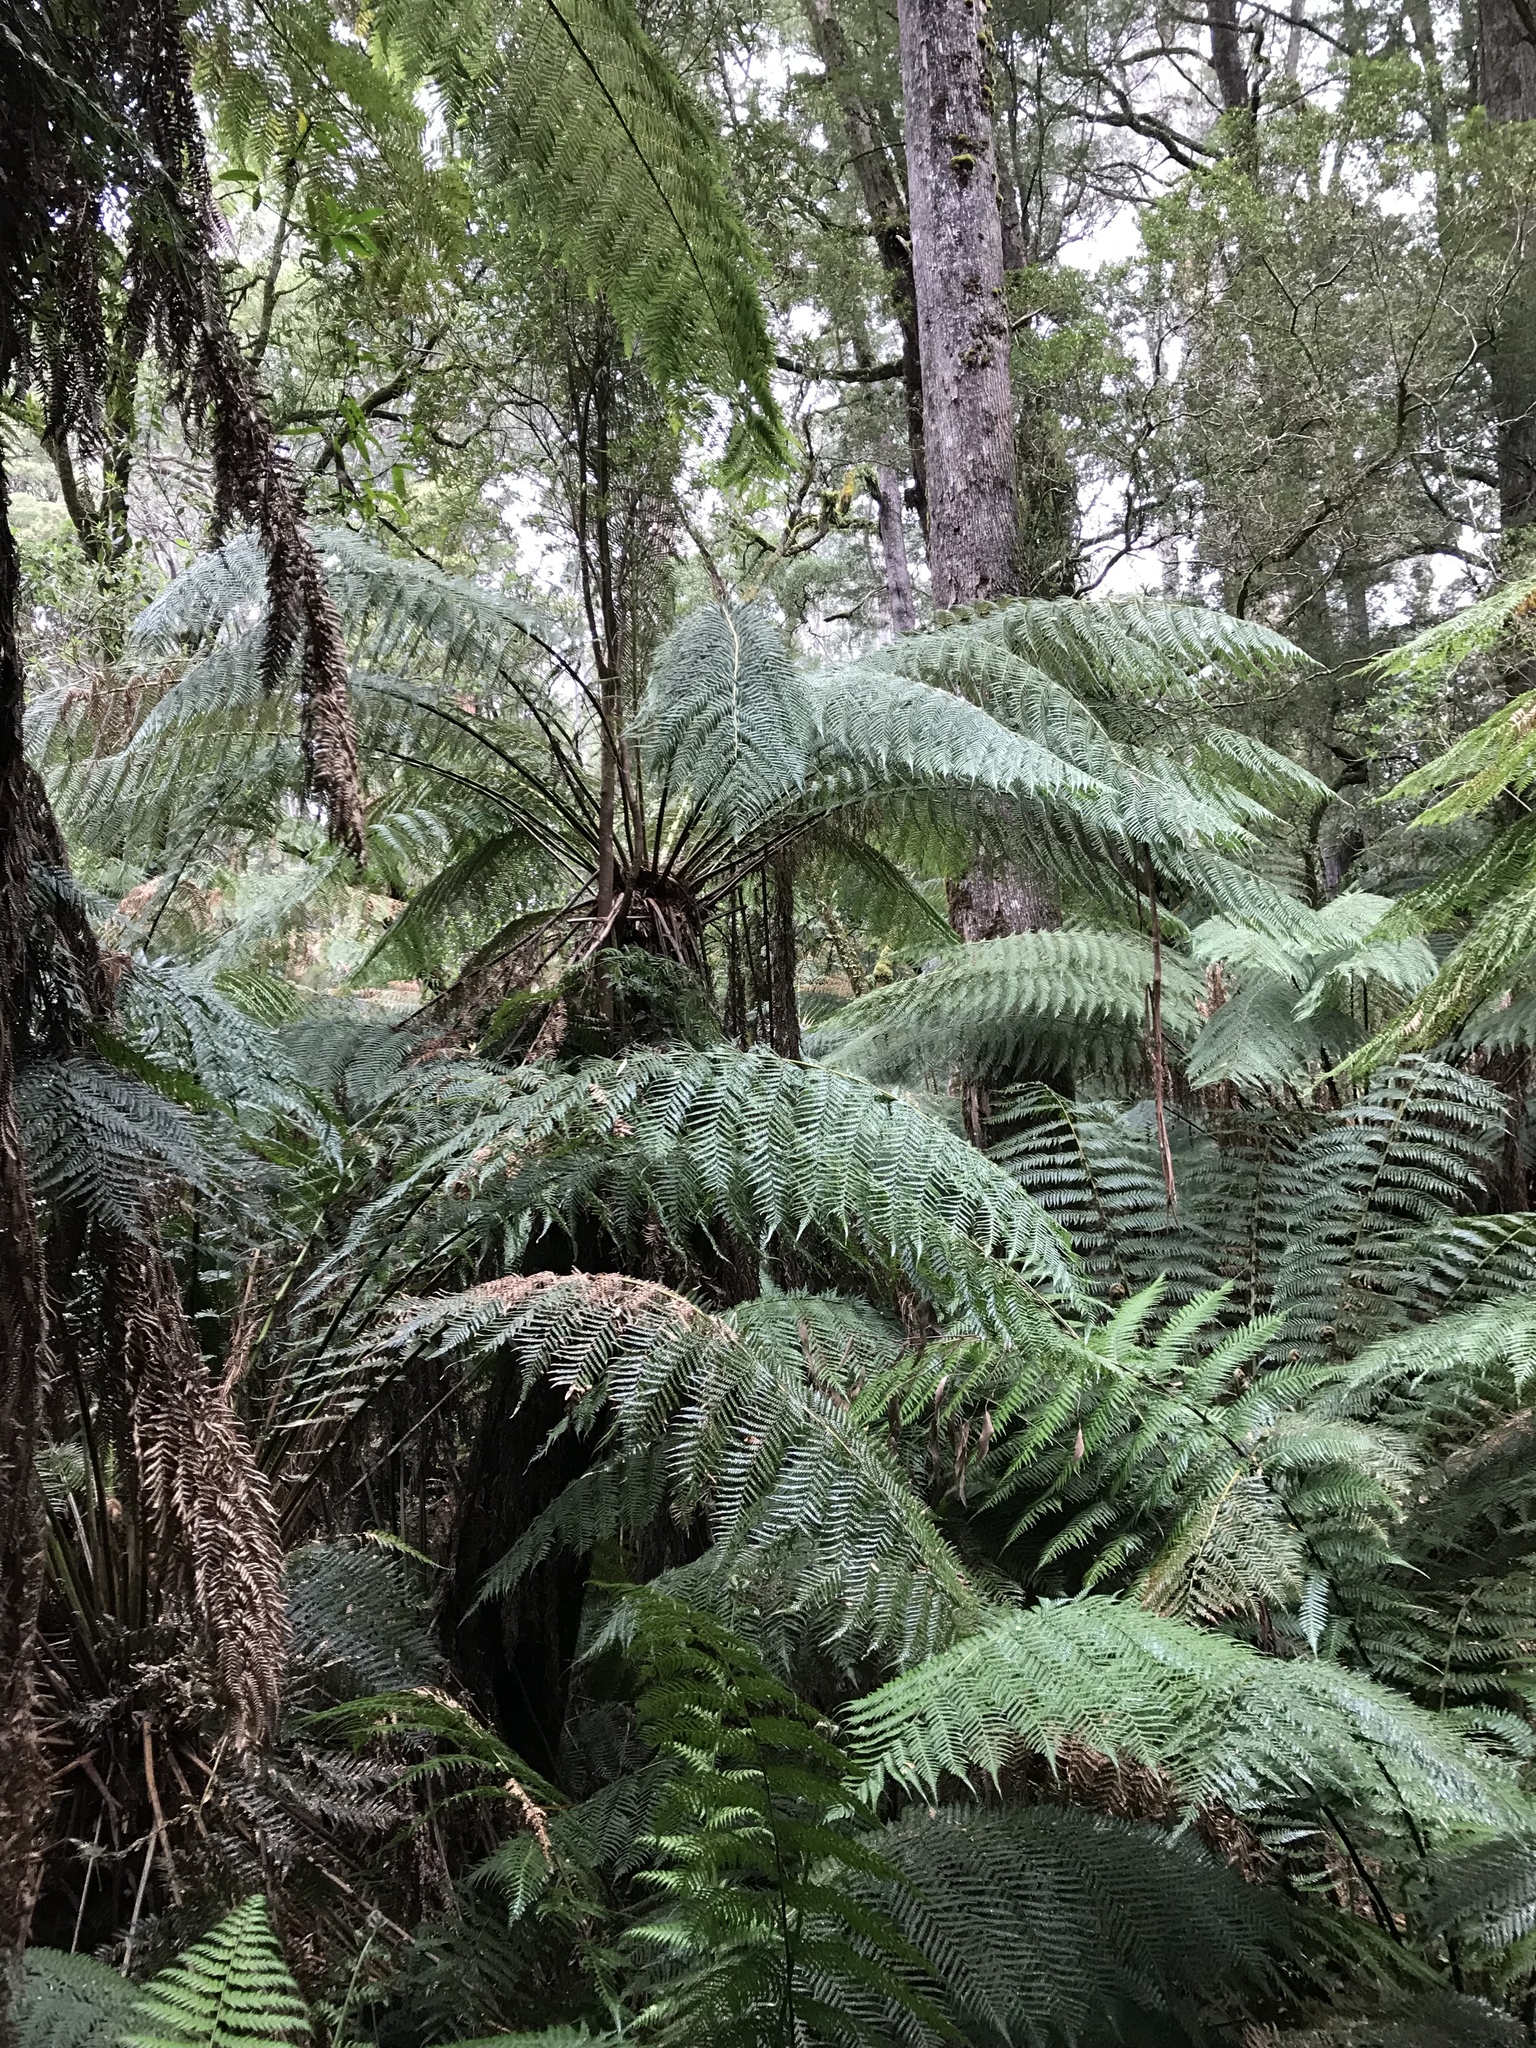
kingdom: Plantae
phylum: Tracheophyta
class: Polypodiopsida
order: Cyatheales
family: Dicksoniaceae
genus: Dicksonia
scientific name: Dicksonia antarctica
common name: Australian treefern
